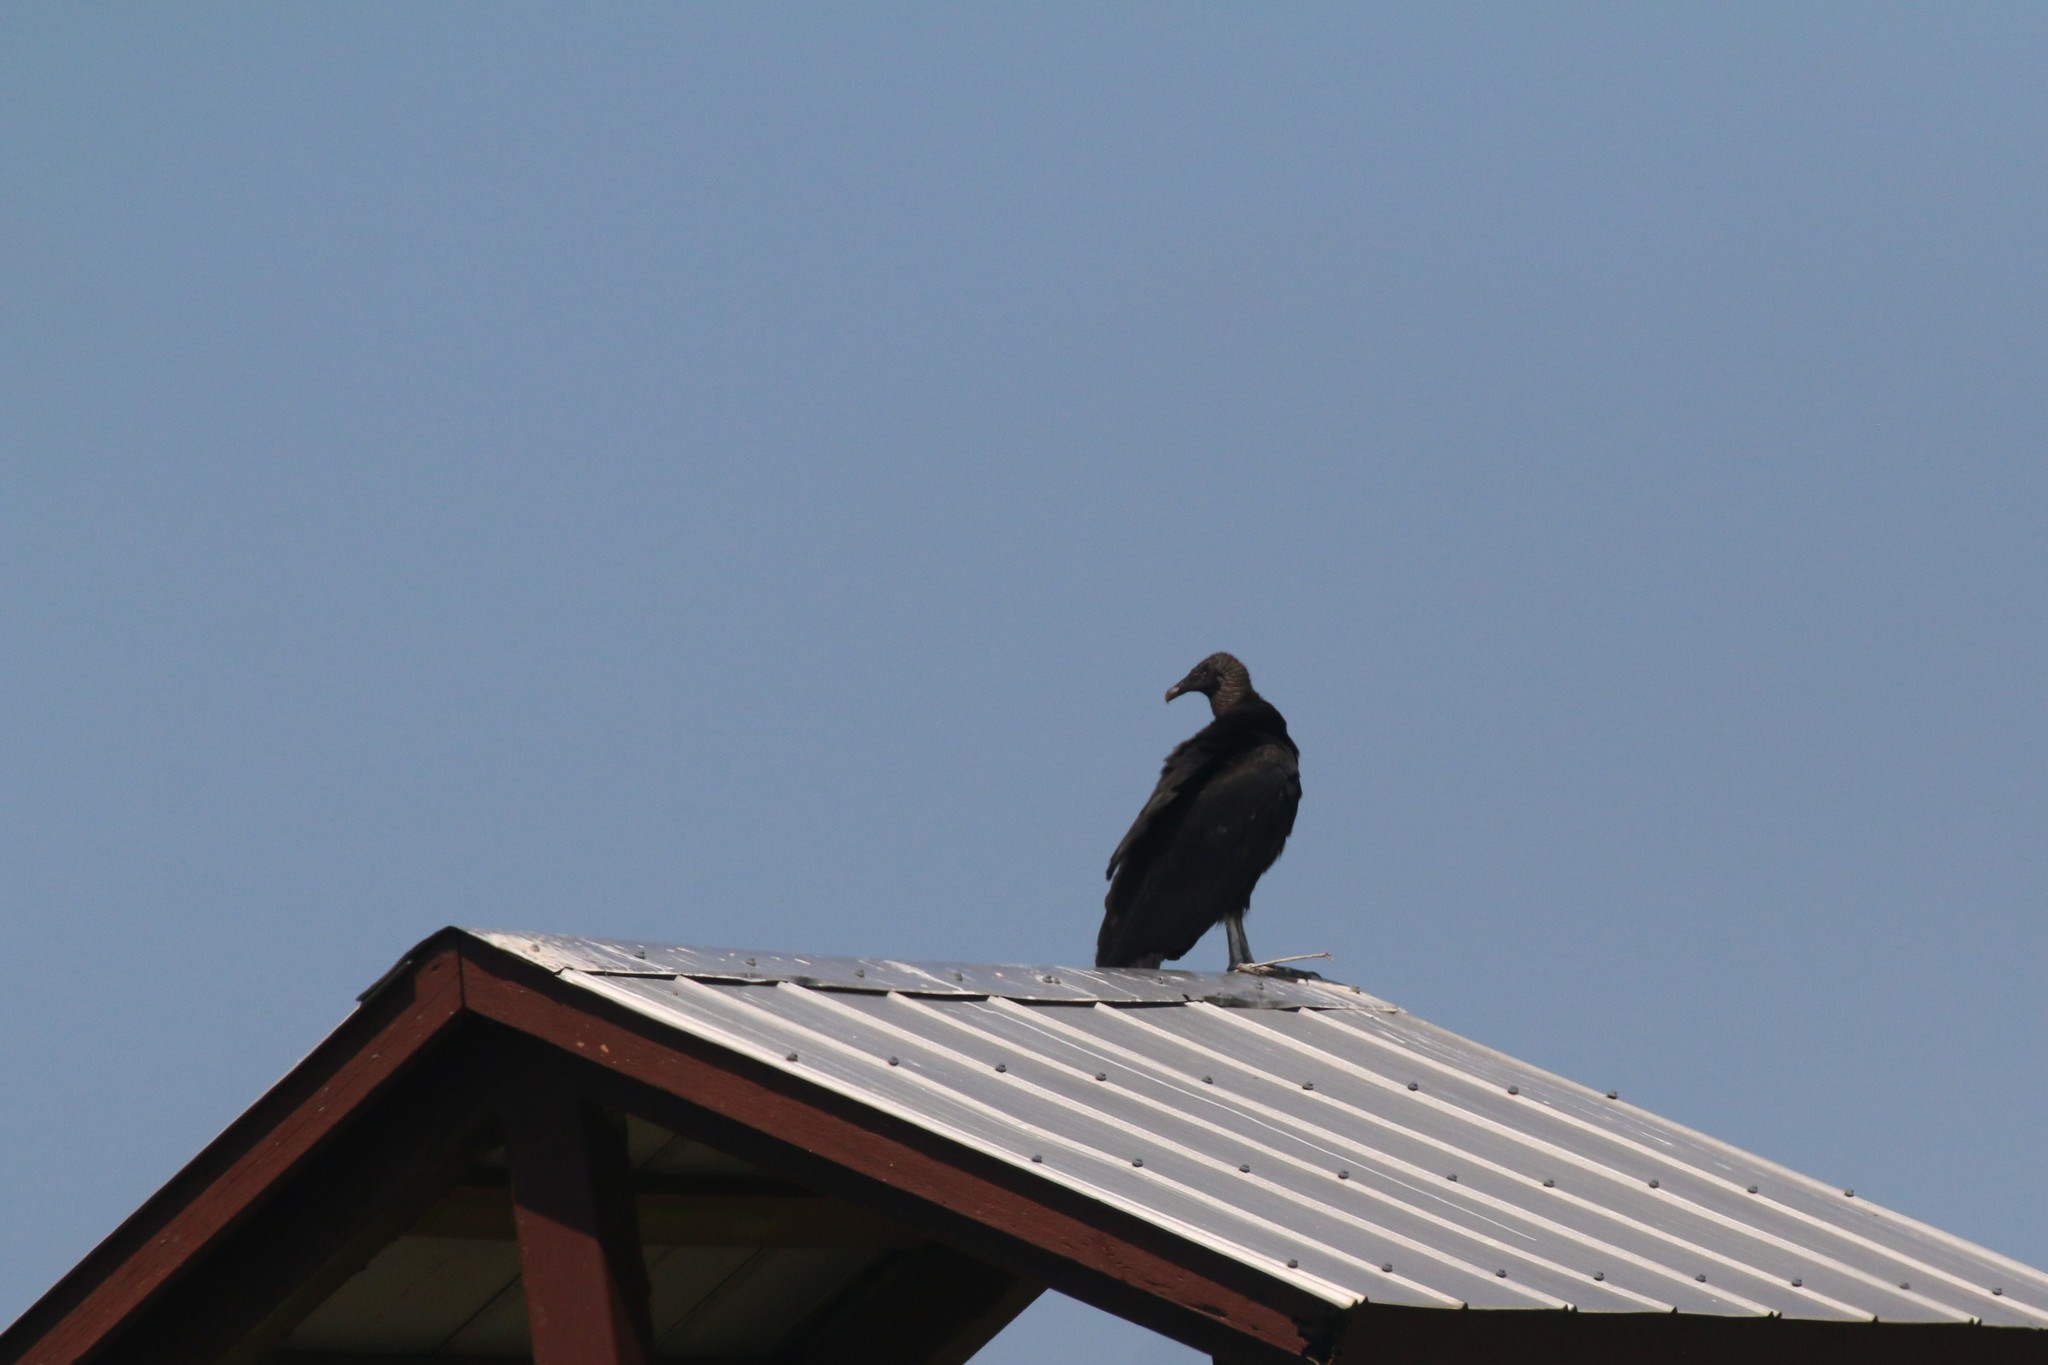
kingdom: Animalia
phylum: Chordata
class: Aves
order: Accipitriformes
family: Cathartidae
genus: Coragyps
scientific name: Coragyps atratus
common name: Black vulture
